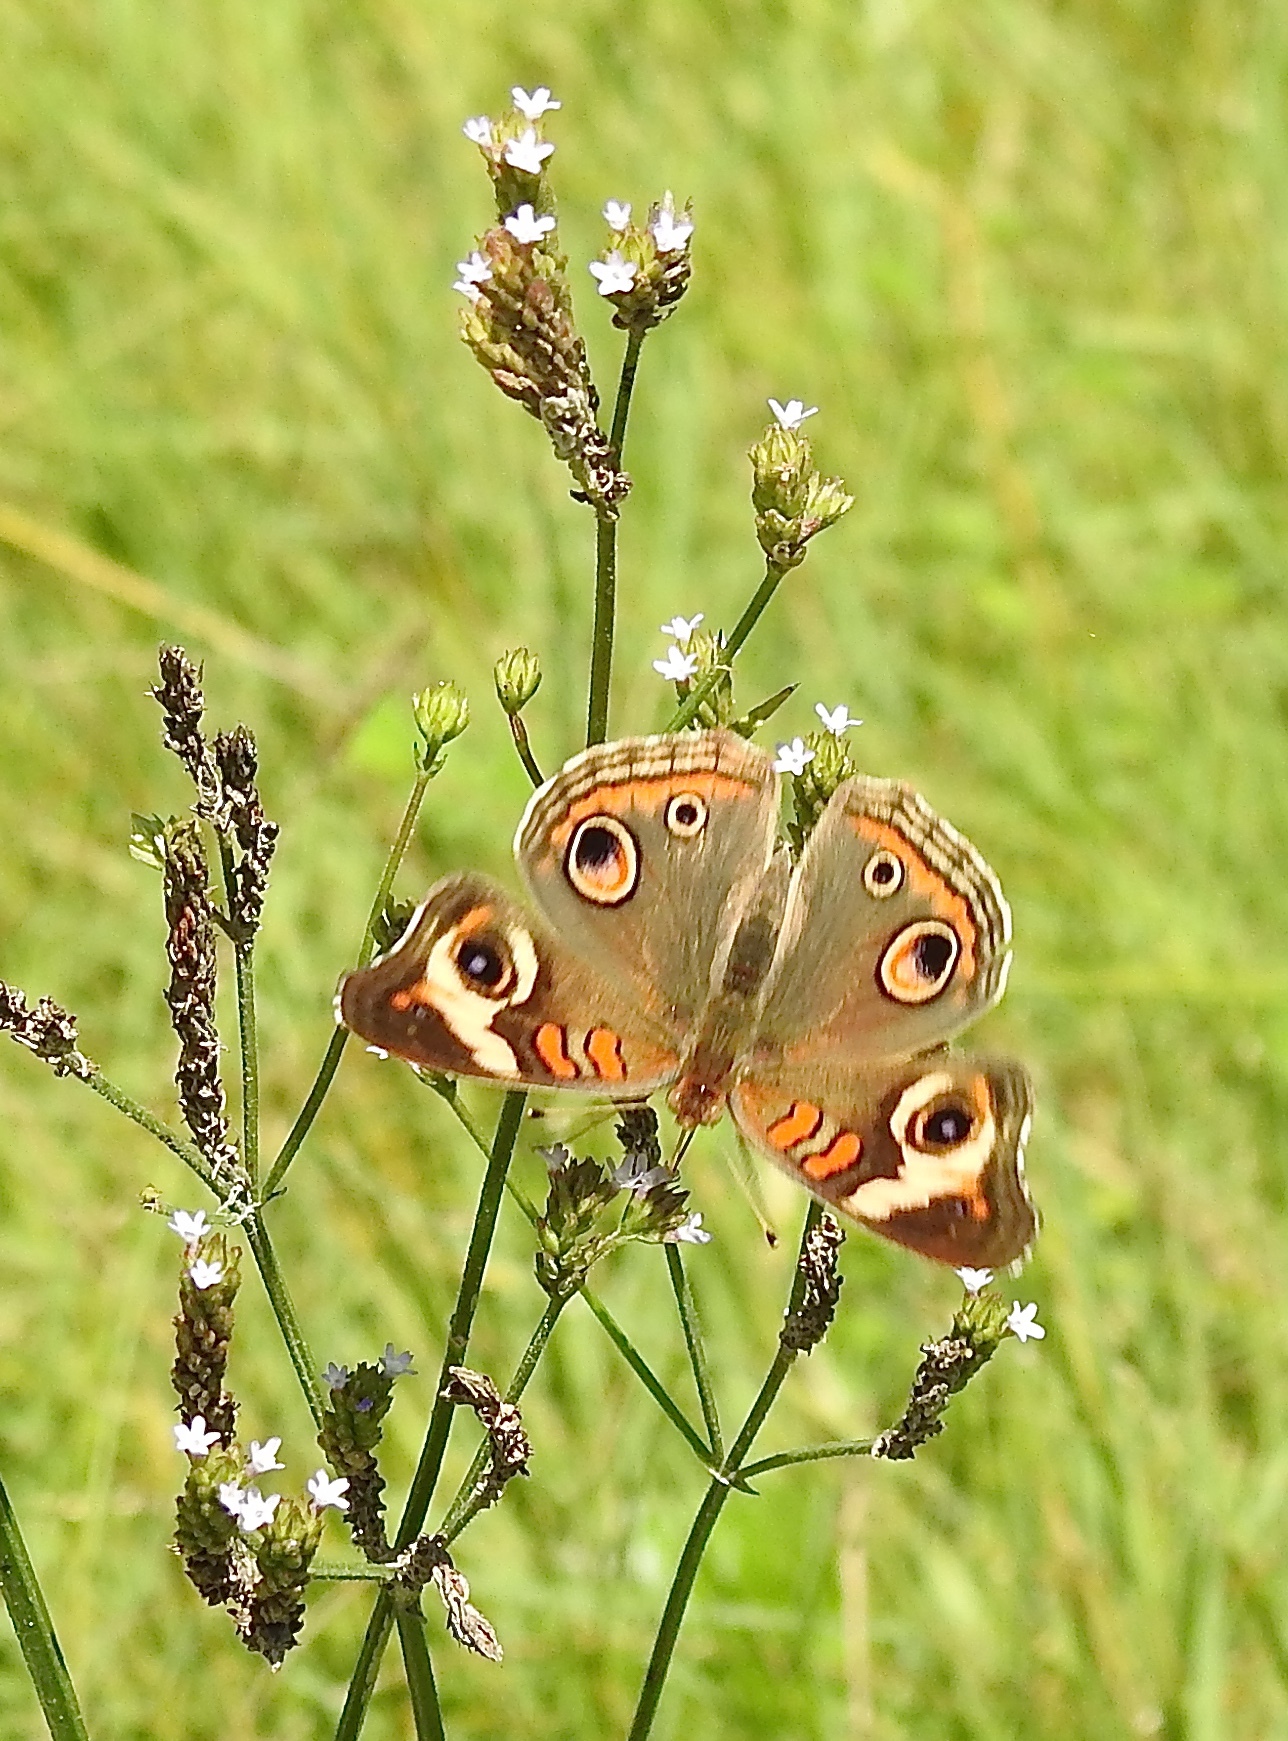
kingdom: Animalia
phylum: Arthropoda
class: Insecta
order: Lepidoptera
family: Nymphalidae
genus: Junonia
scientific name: Junonia coenia
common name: Common buckeye
